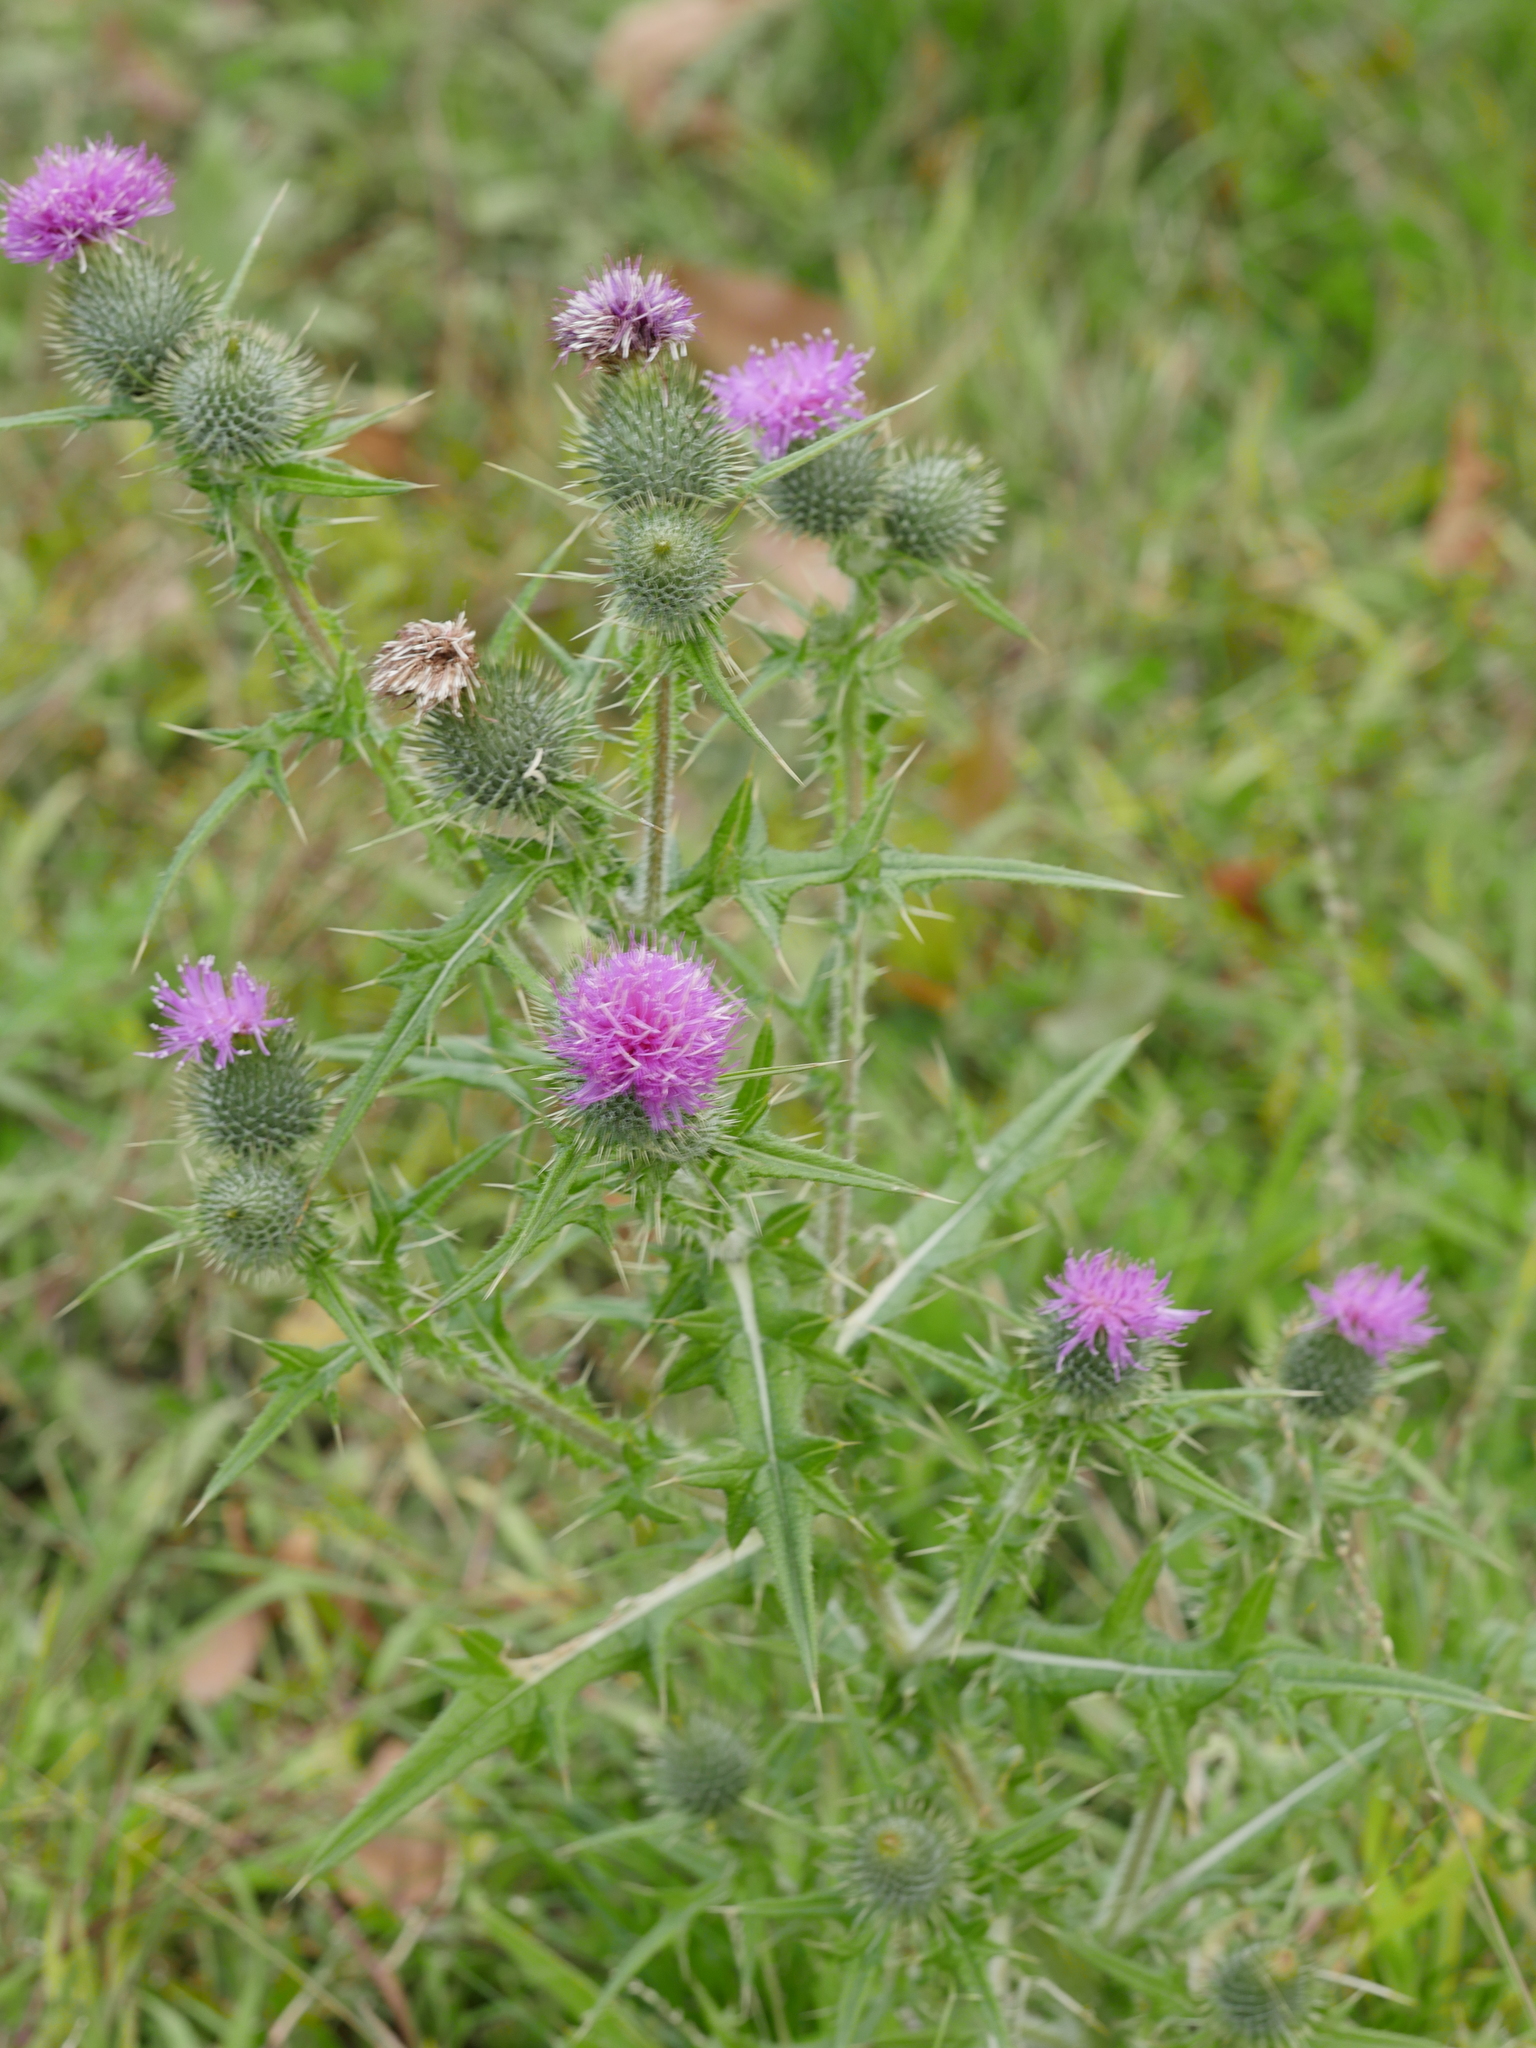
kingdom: Plantae
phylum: Tracheophyta
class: Magnoliopsida
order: Asterales
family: Asteraceae
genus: Cirsium
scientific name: Cirsium vulgare
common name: Bull thistle
